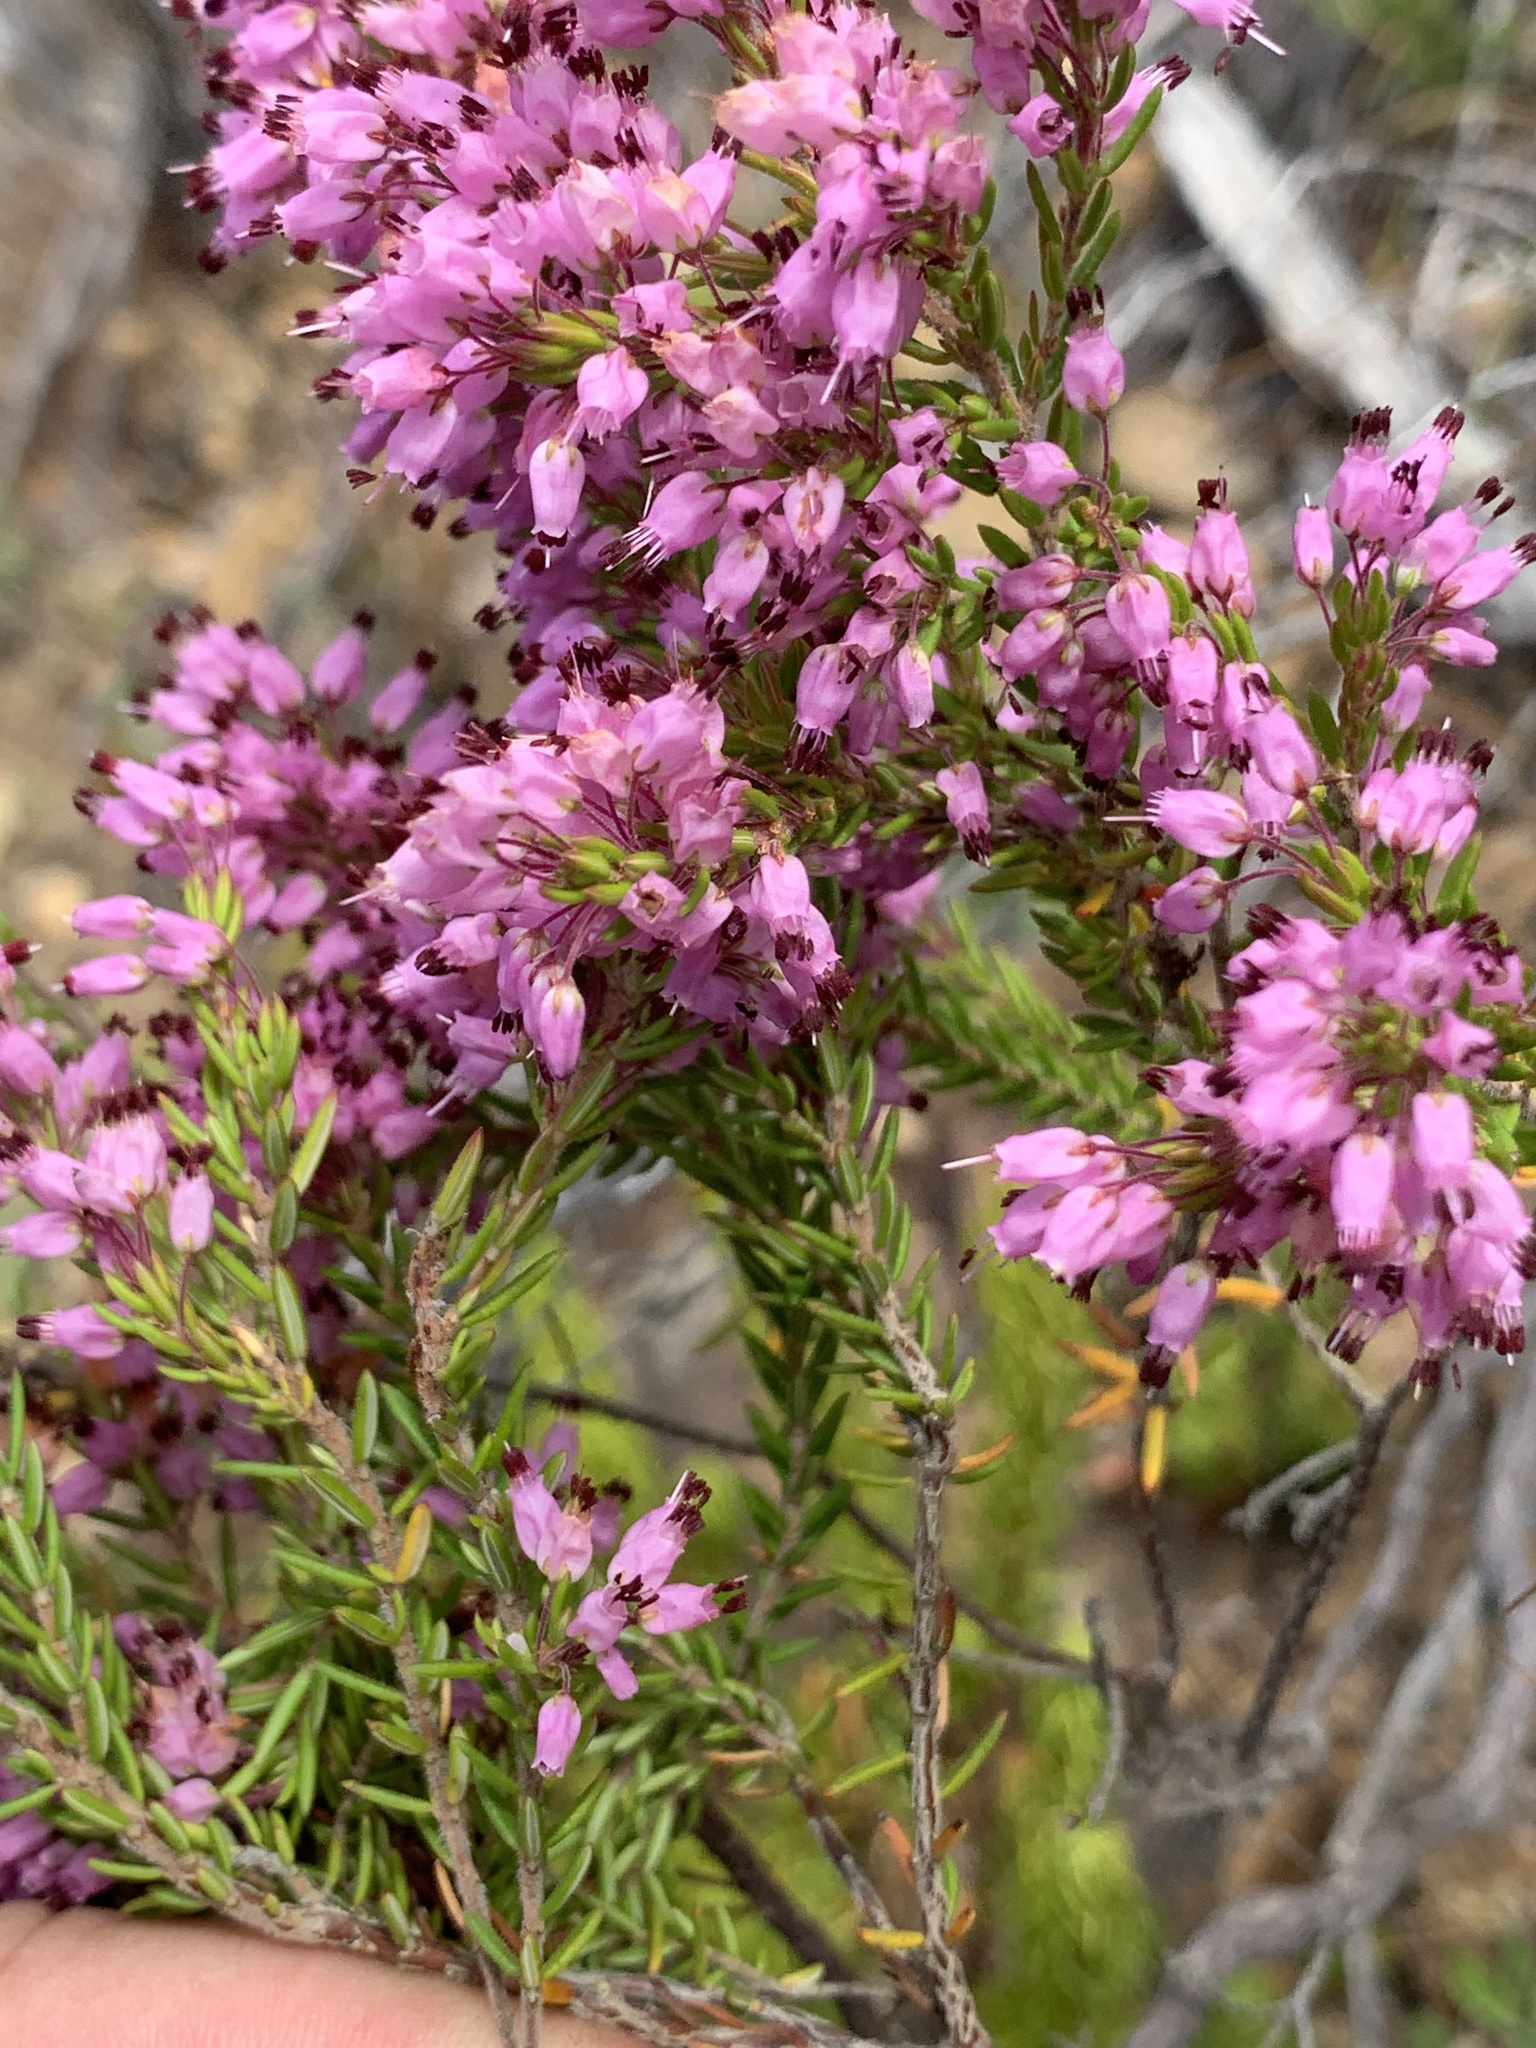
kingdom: Plantae
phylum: Tracheophyta
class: Magnoliopsida
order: Ericales
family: Ericaceae
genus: Erica
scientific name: Erica nudiflora
